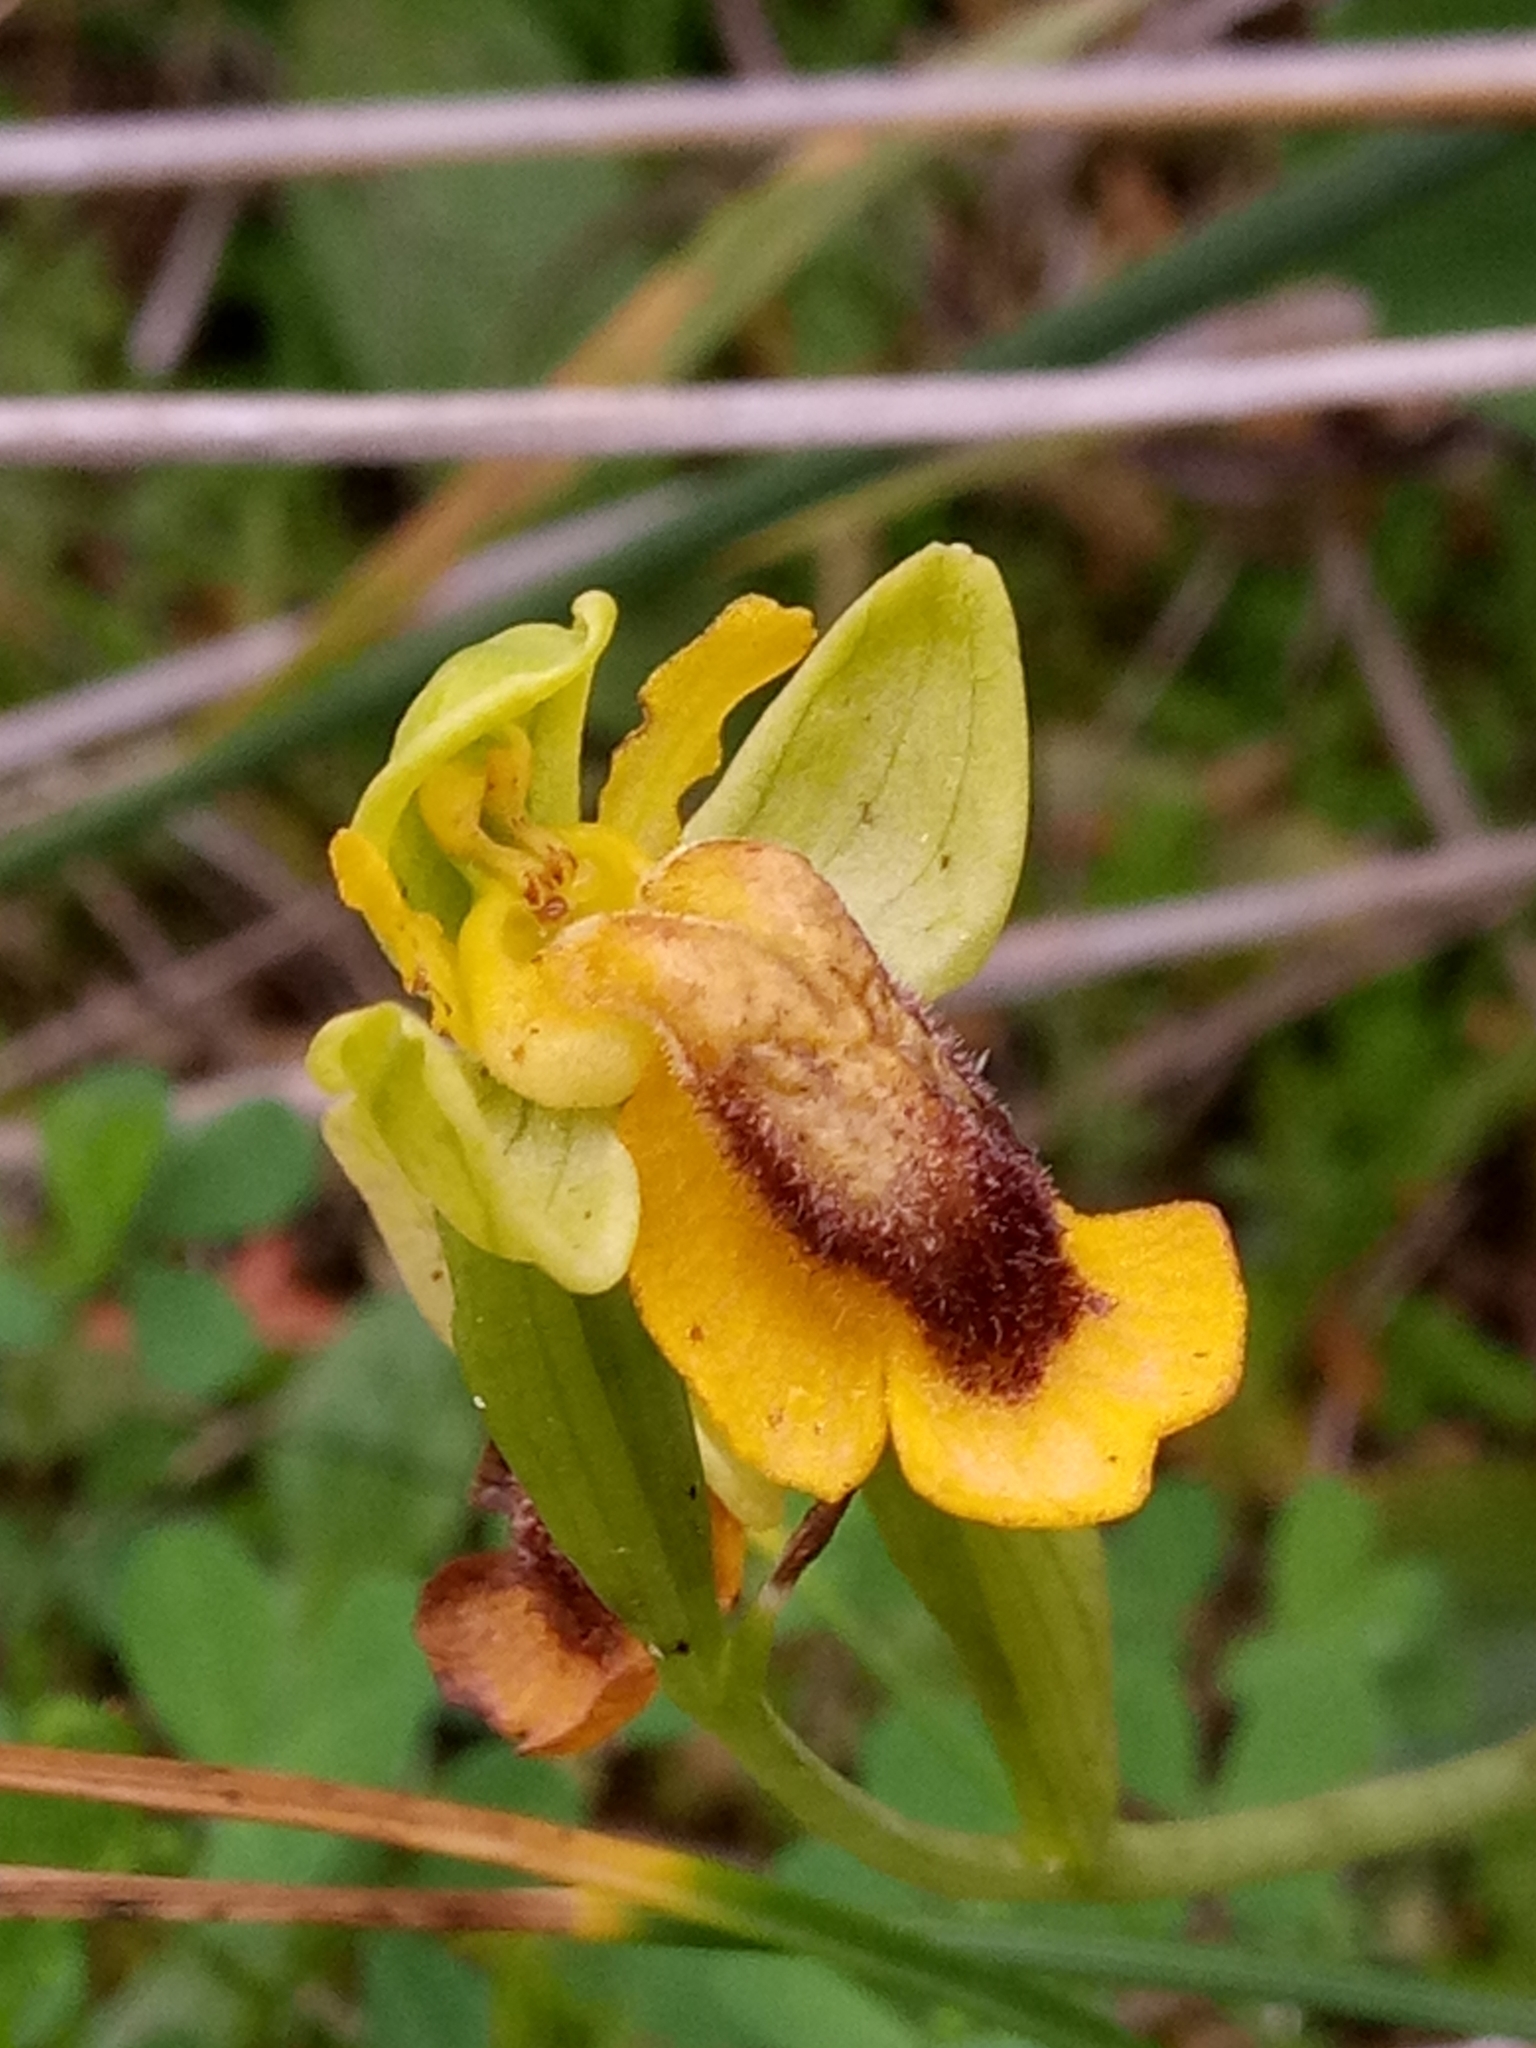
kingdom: Plantae
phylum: Tracheophyta
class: Liliopsida
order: Asparagales
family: Orchidaceae
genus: Ophrys
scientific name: Ophrys lutea
